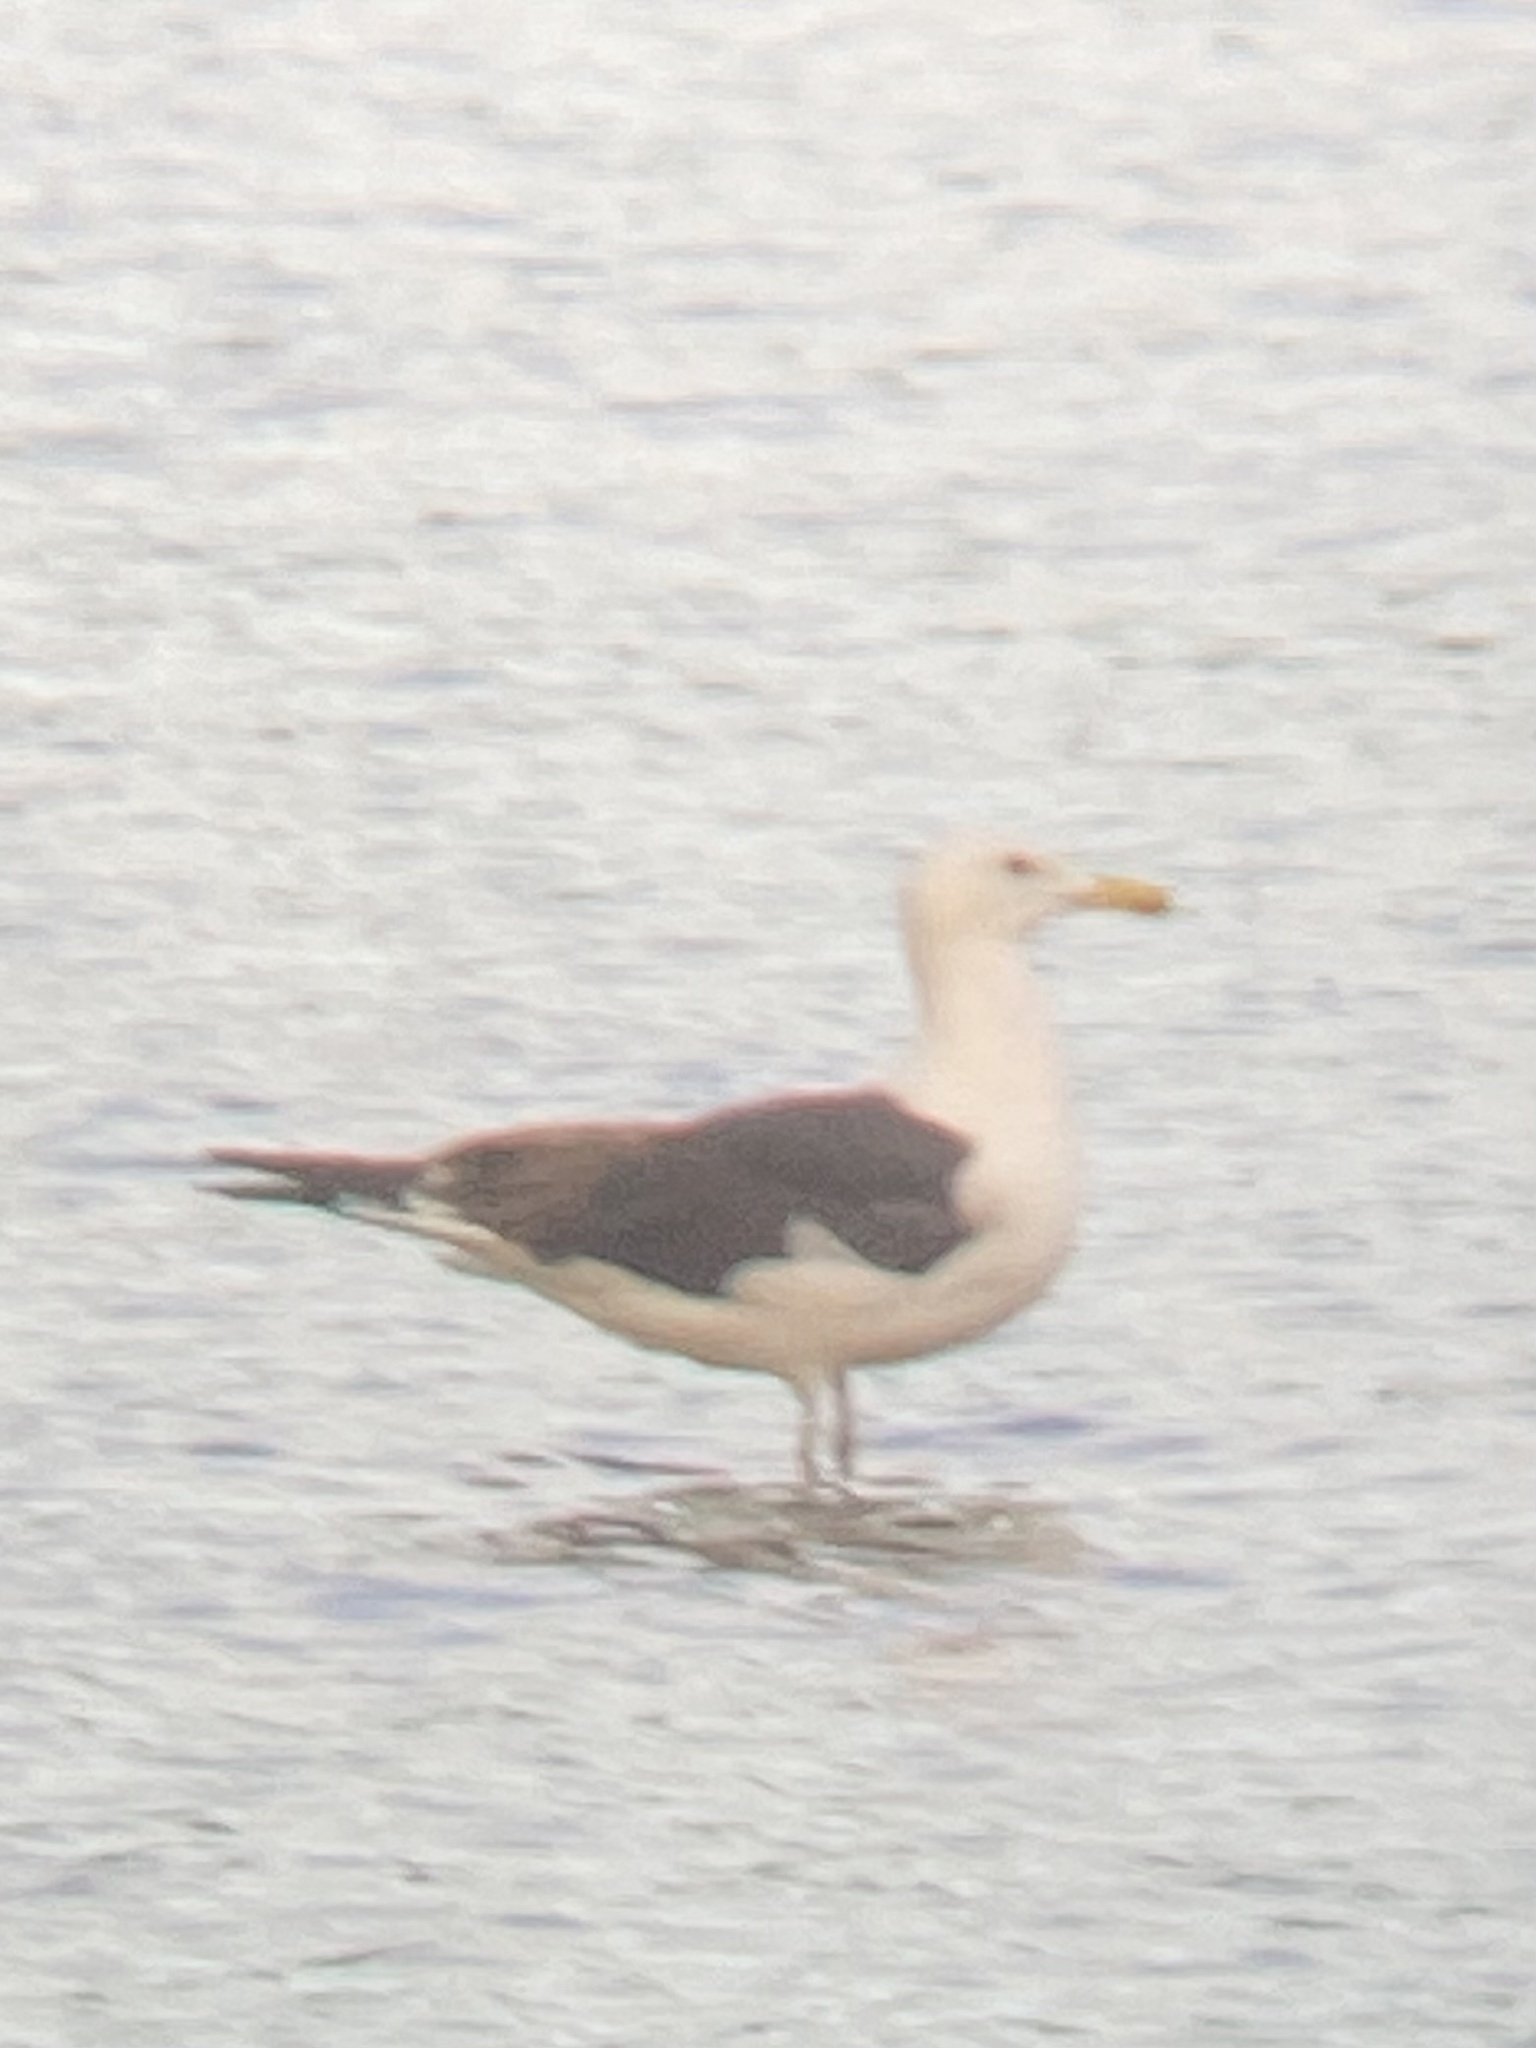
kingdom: Animalia
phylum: Chordata
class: Aves
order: Charadriiformes
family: Laridae
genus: Larus
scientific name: Larus marinus
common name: Great black-backed gull
